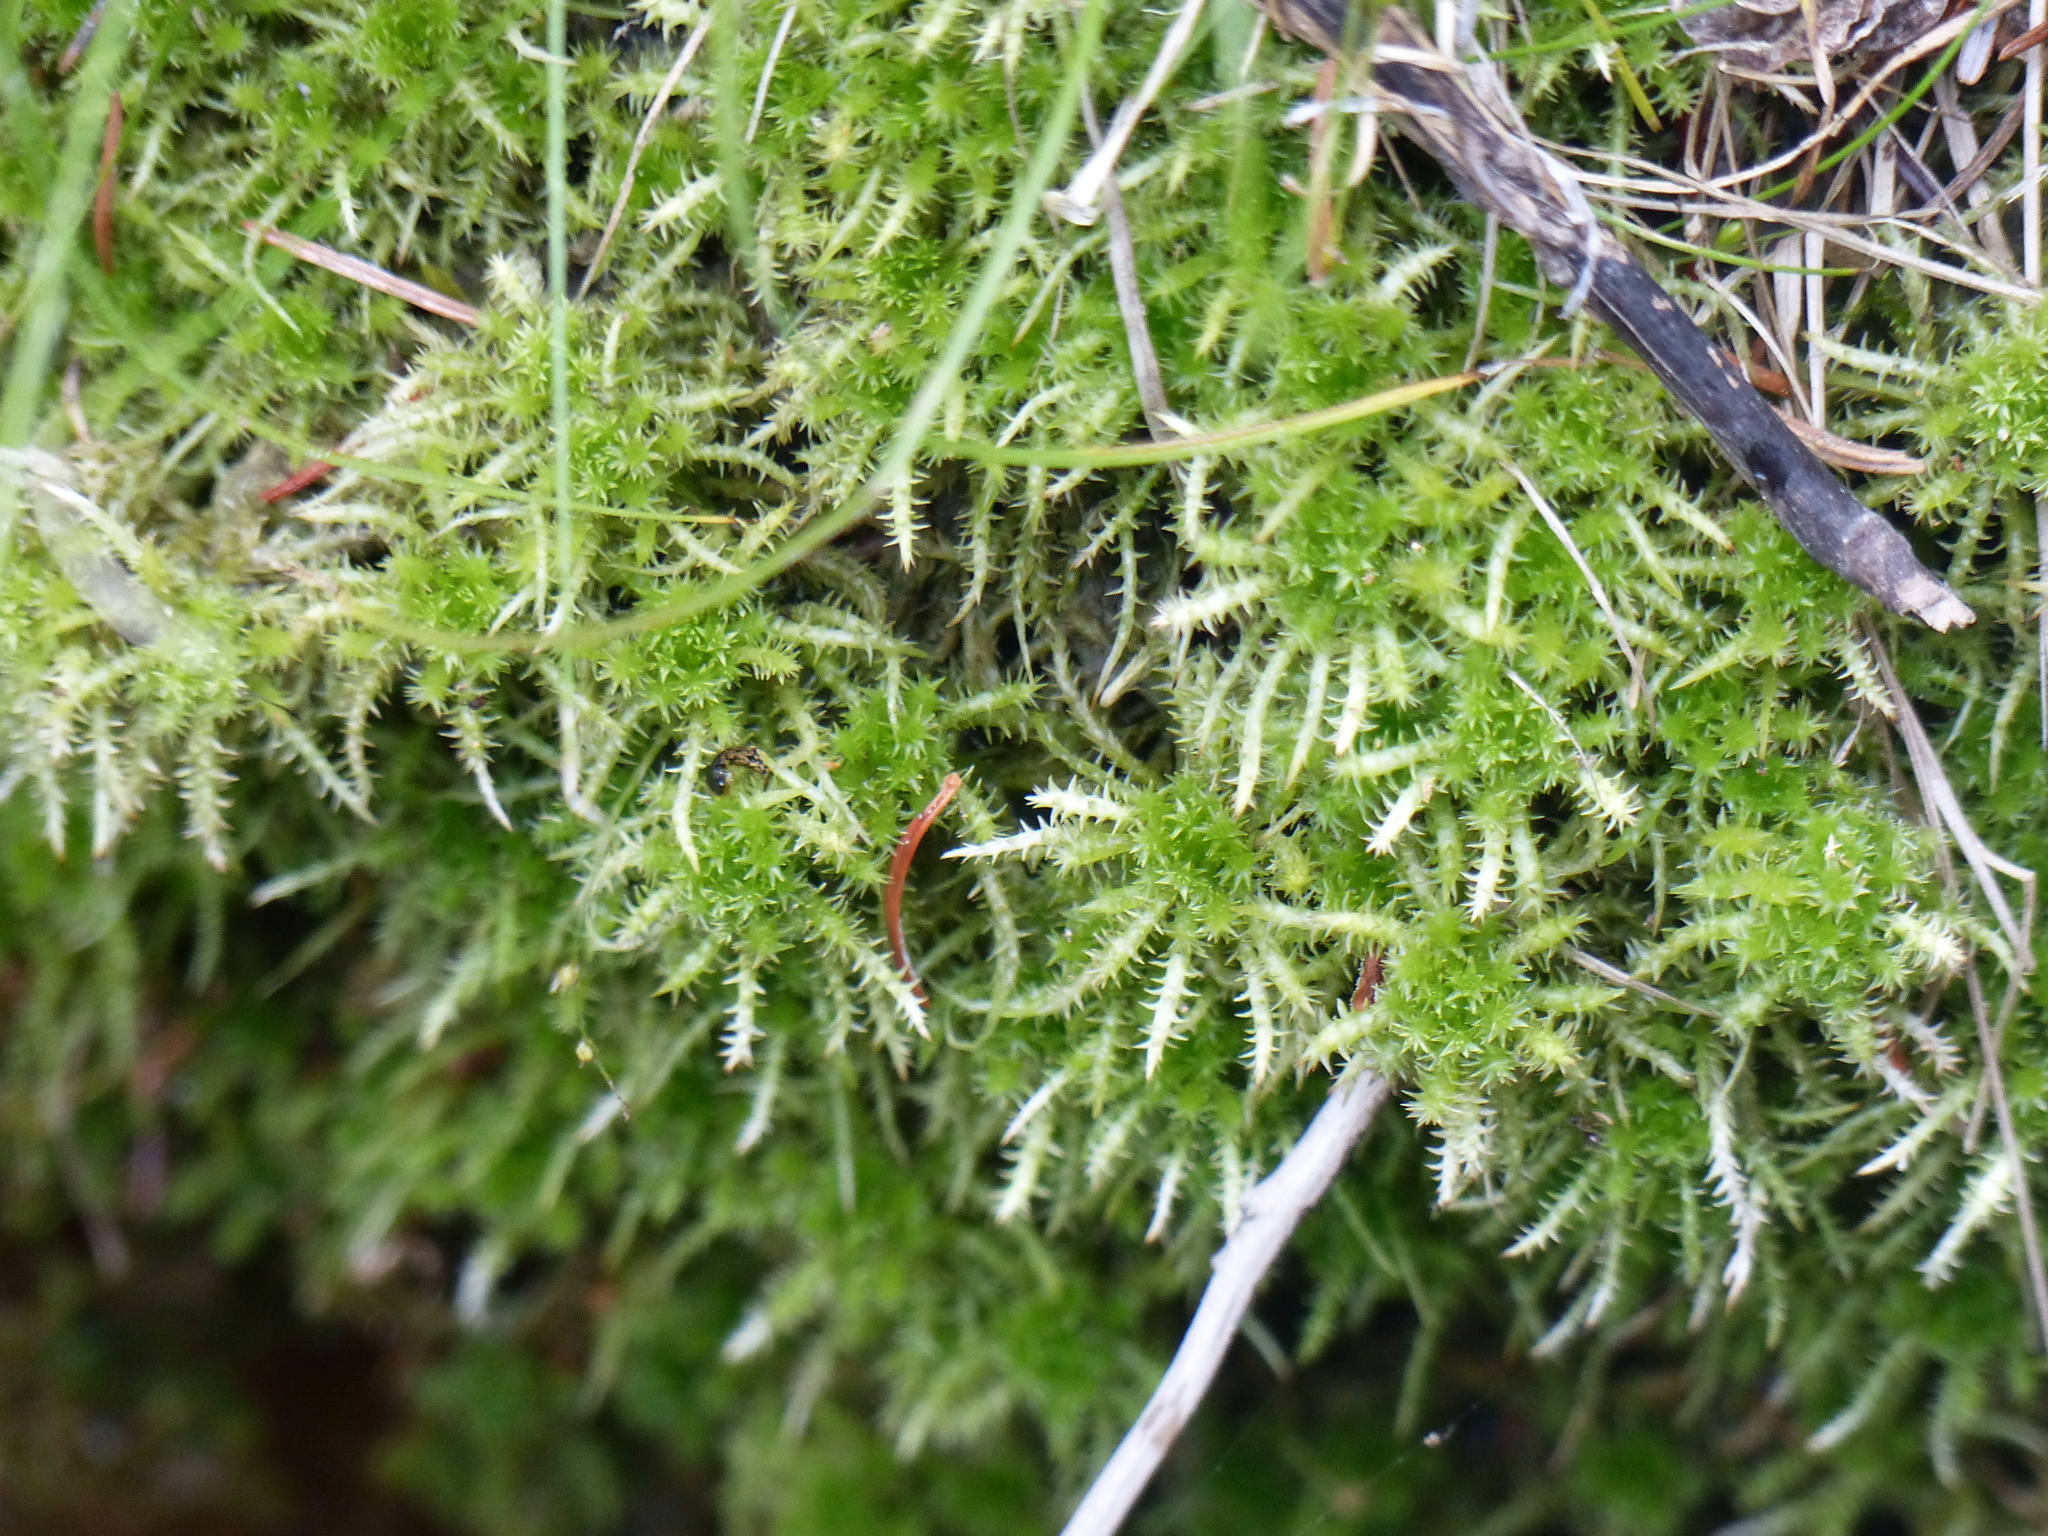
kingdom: Plantae
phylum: Bryophyta
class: Sphagnopsida
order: Sphagnales
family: Sphagnaceae
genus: Sphagnum
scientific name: Sphagnum squarrosum
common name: Shaggy peat moss
